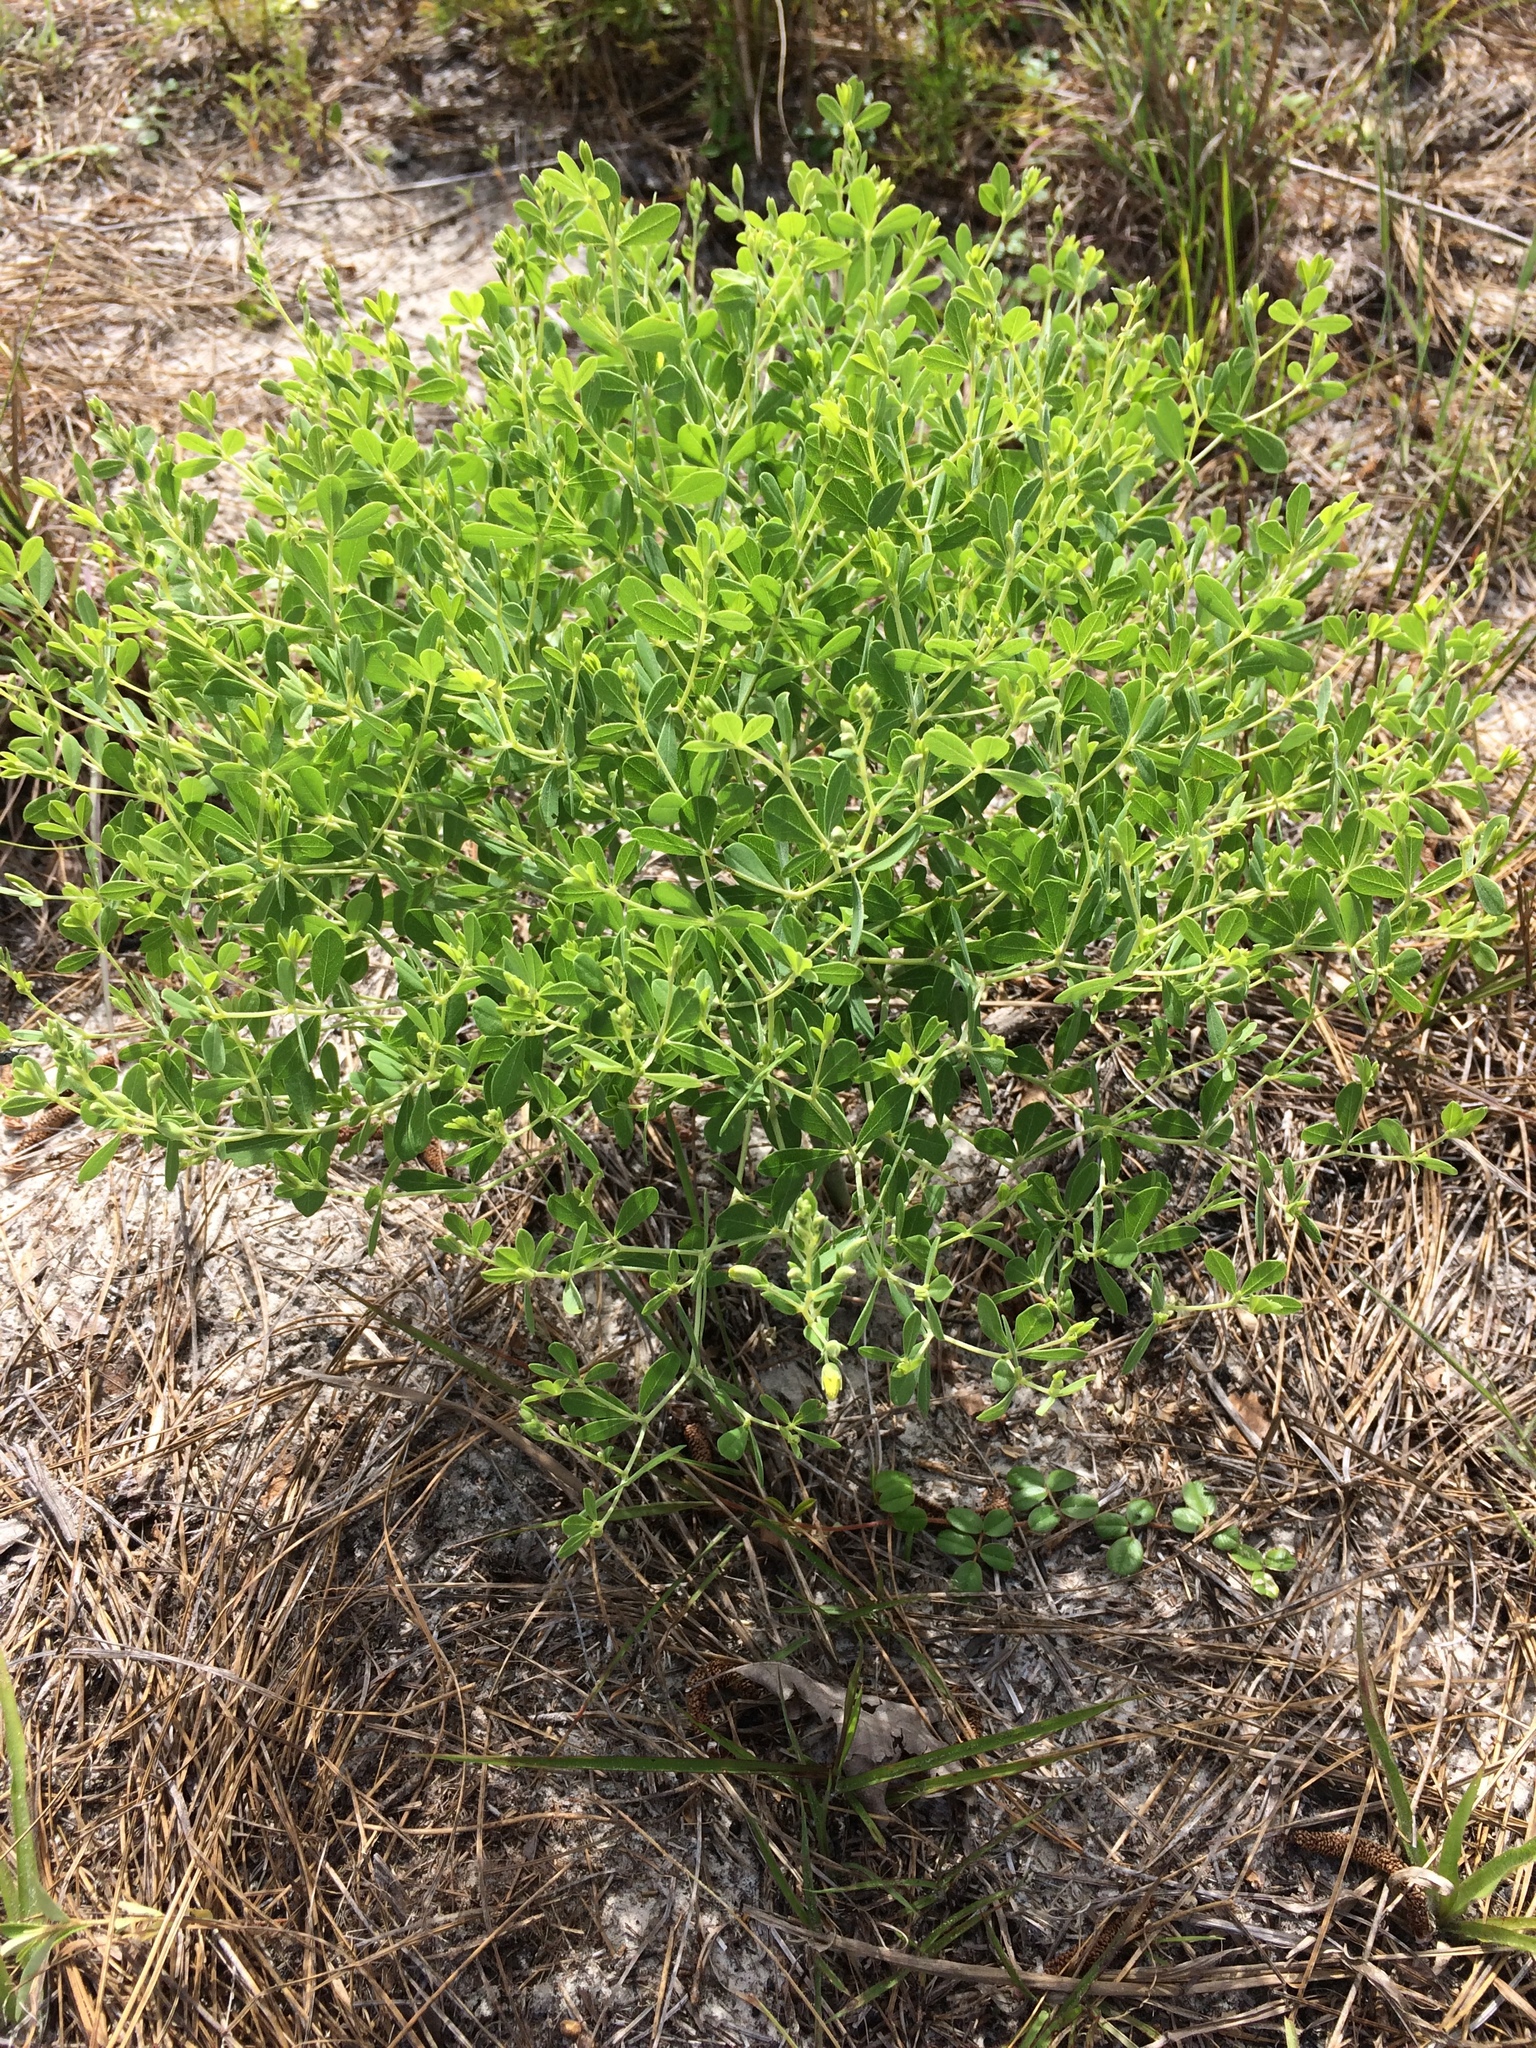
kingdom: Plantae
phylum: Tracheophyta
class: Magnoliopsida
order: Fabales
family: Fabaceae
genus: Baptisia
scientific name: Baptisia lecontei
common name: Pineland wild indigo
